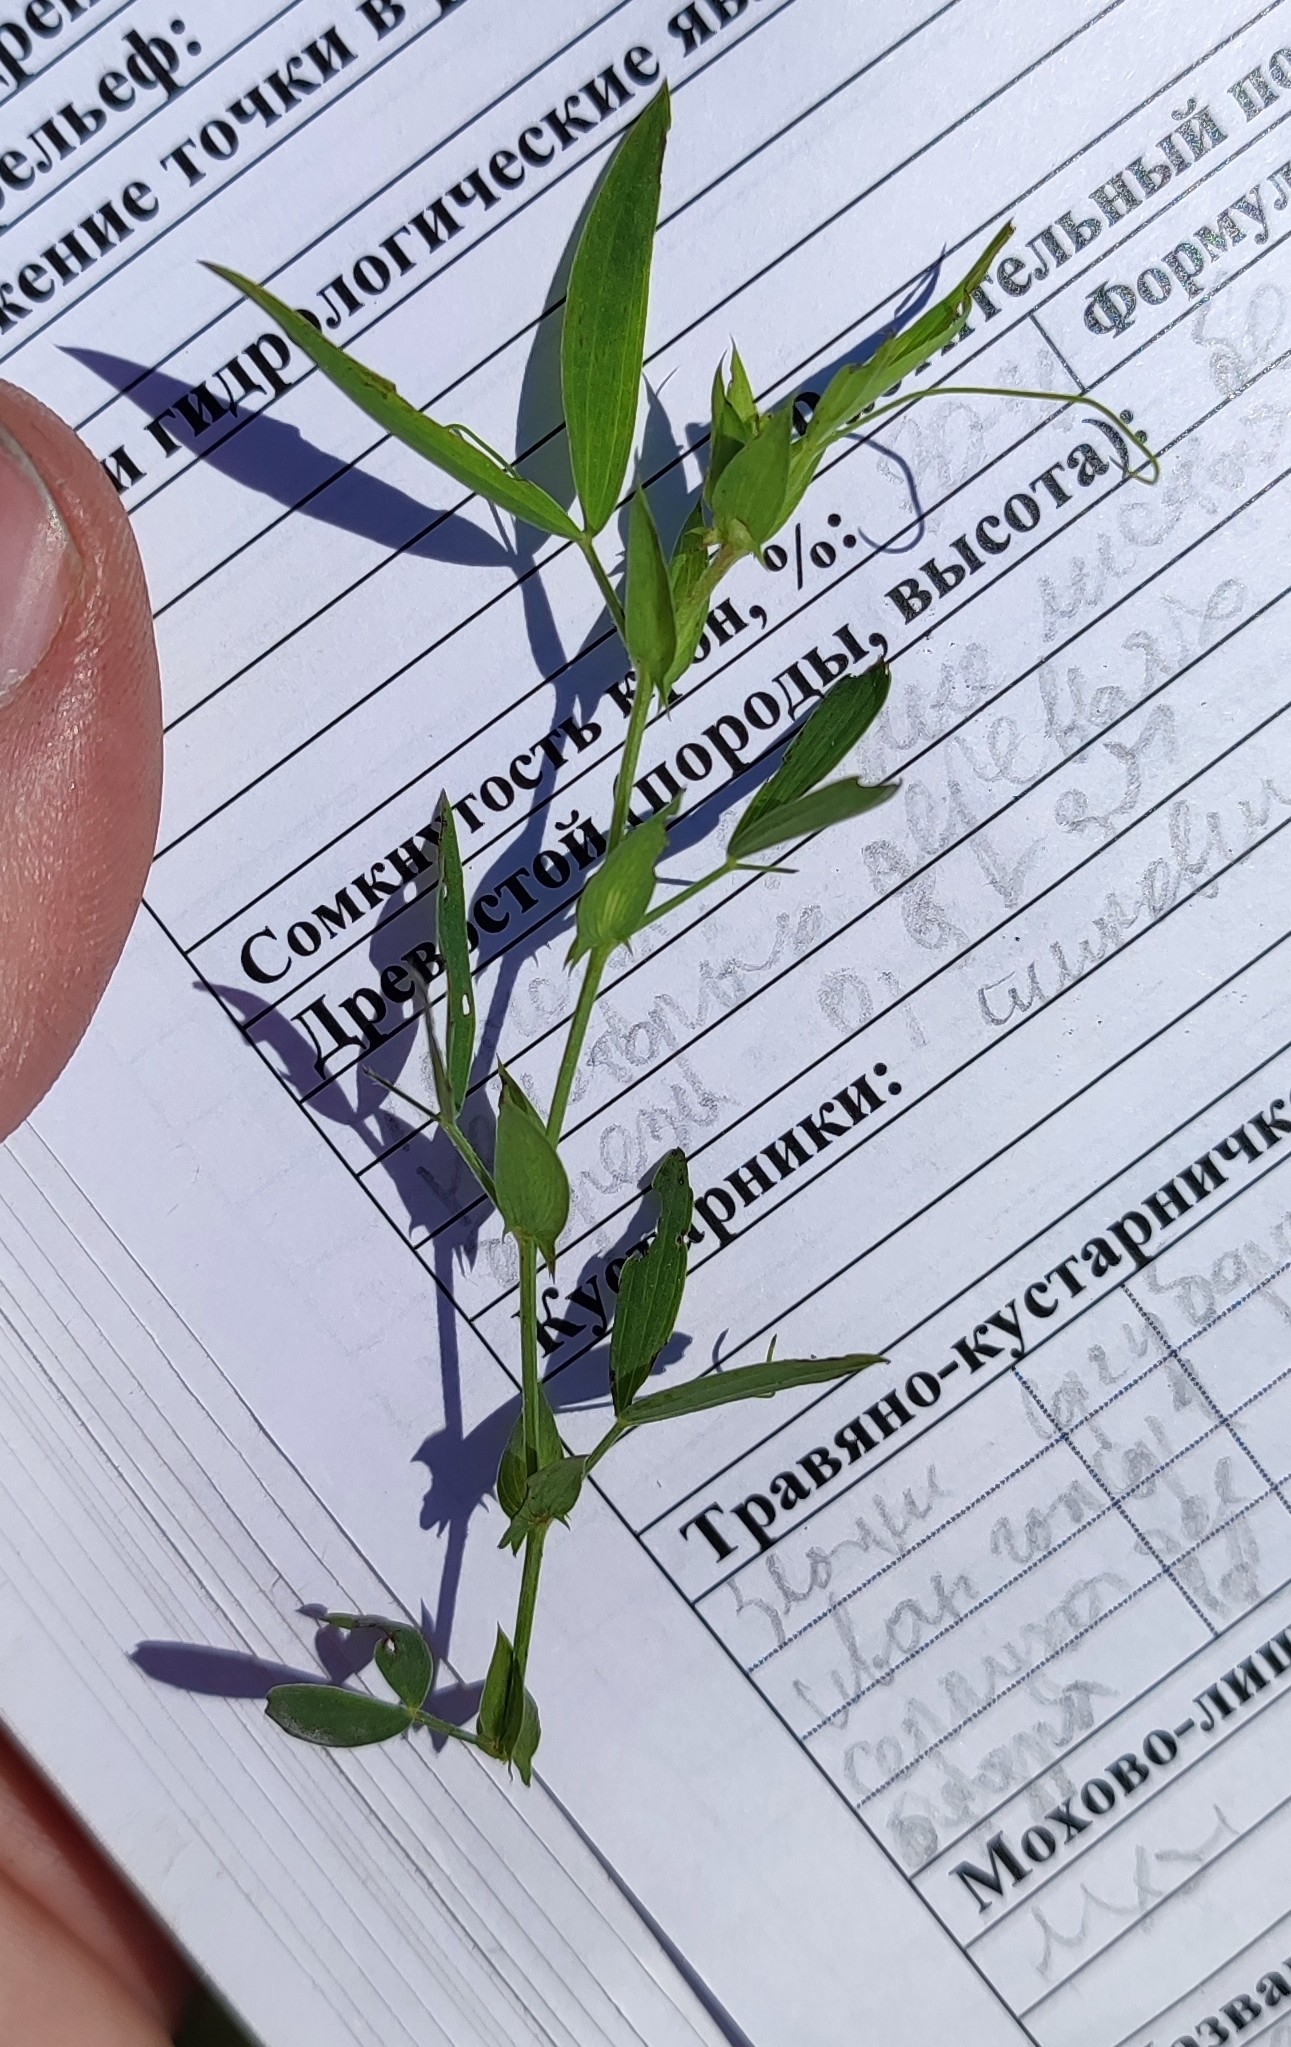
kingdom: Plantae
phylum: Tracheophyta
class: Magnoliopsida
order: Fabales
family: Fabaceae
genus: Lathyrus
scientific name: Lathyrus pratensis
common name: Meadow vetchling
